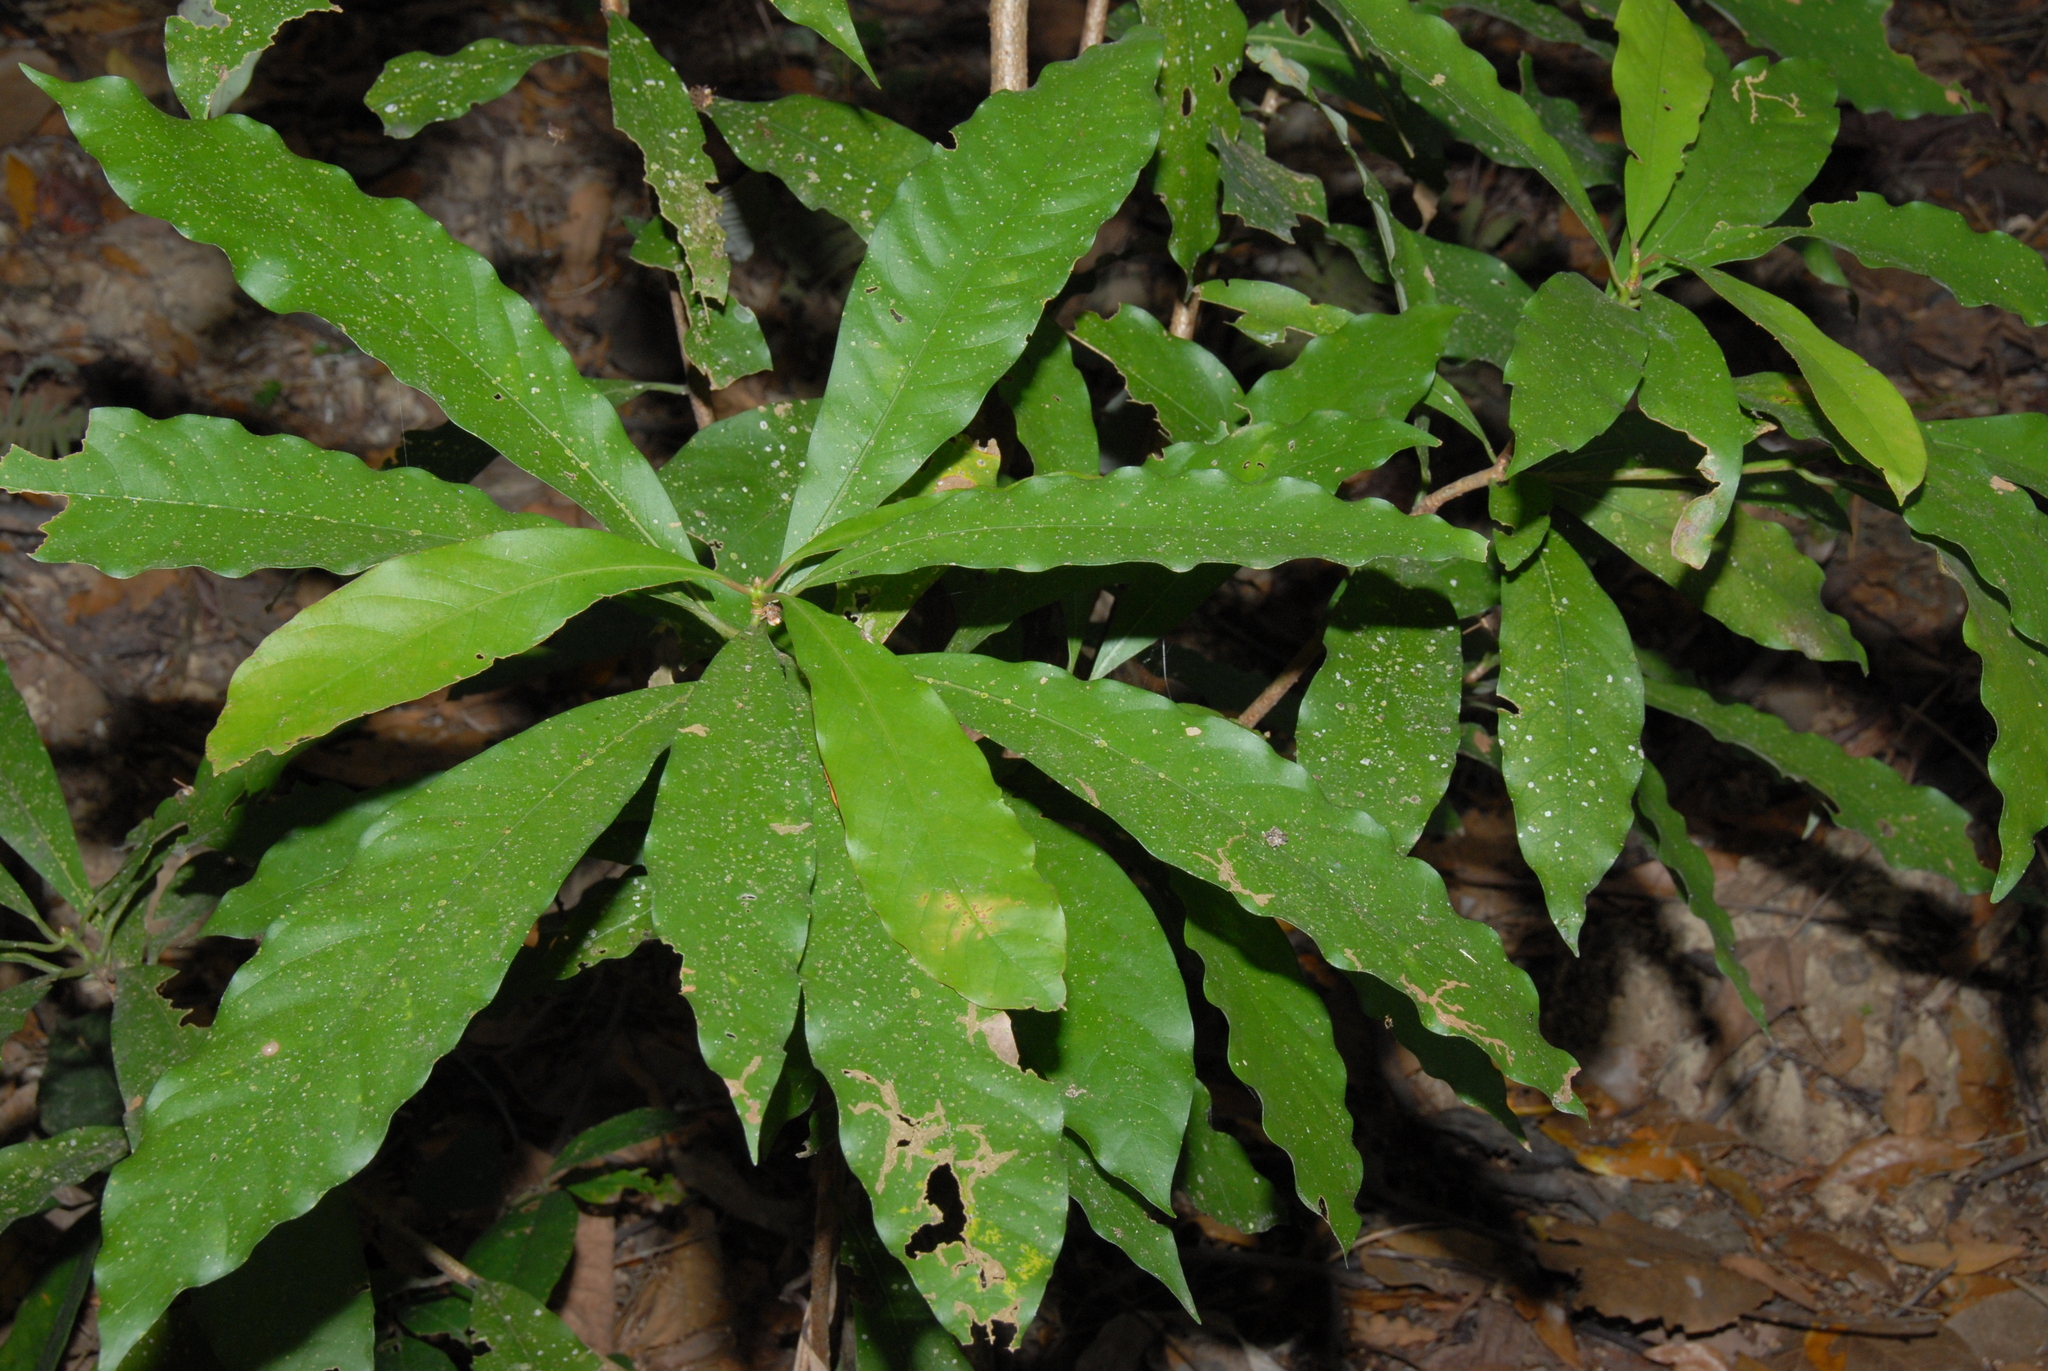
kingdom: Plantae
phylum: Tracheophyta
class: Magnoliopsida
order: Laurales
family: Lauraceae
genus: Machilus
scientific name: Machilus japonica
